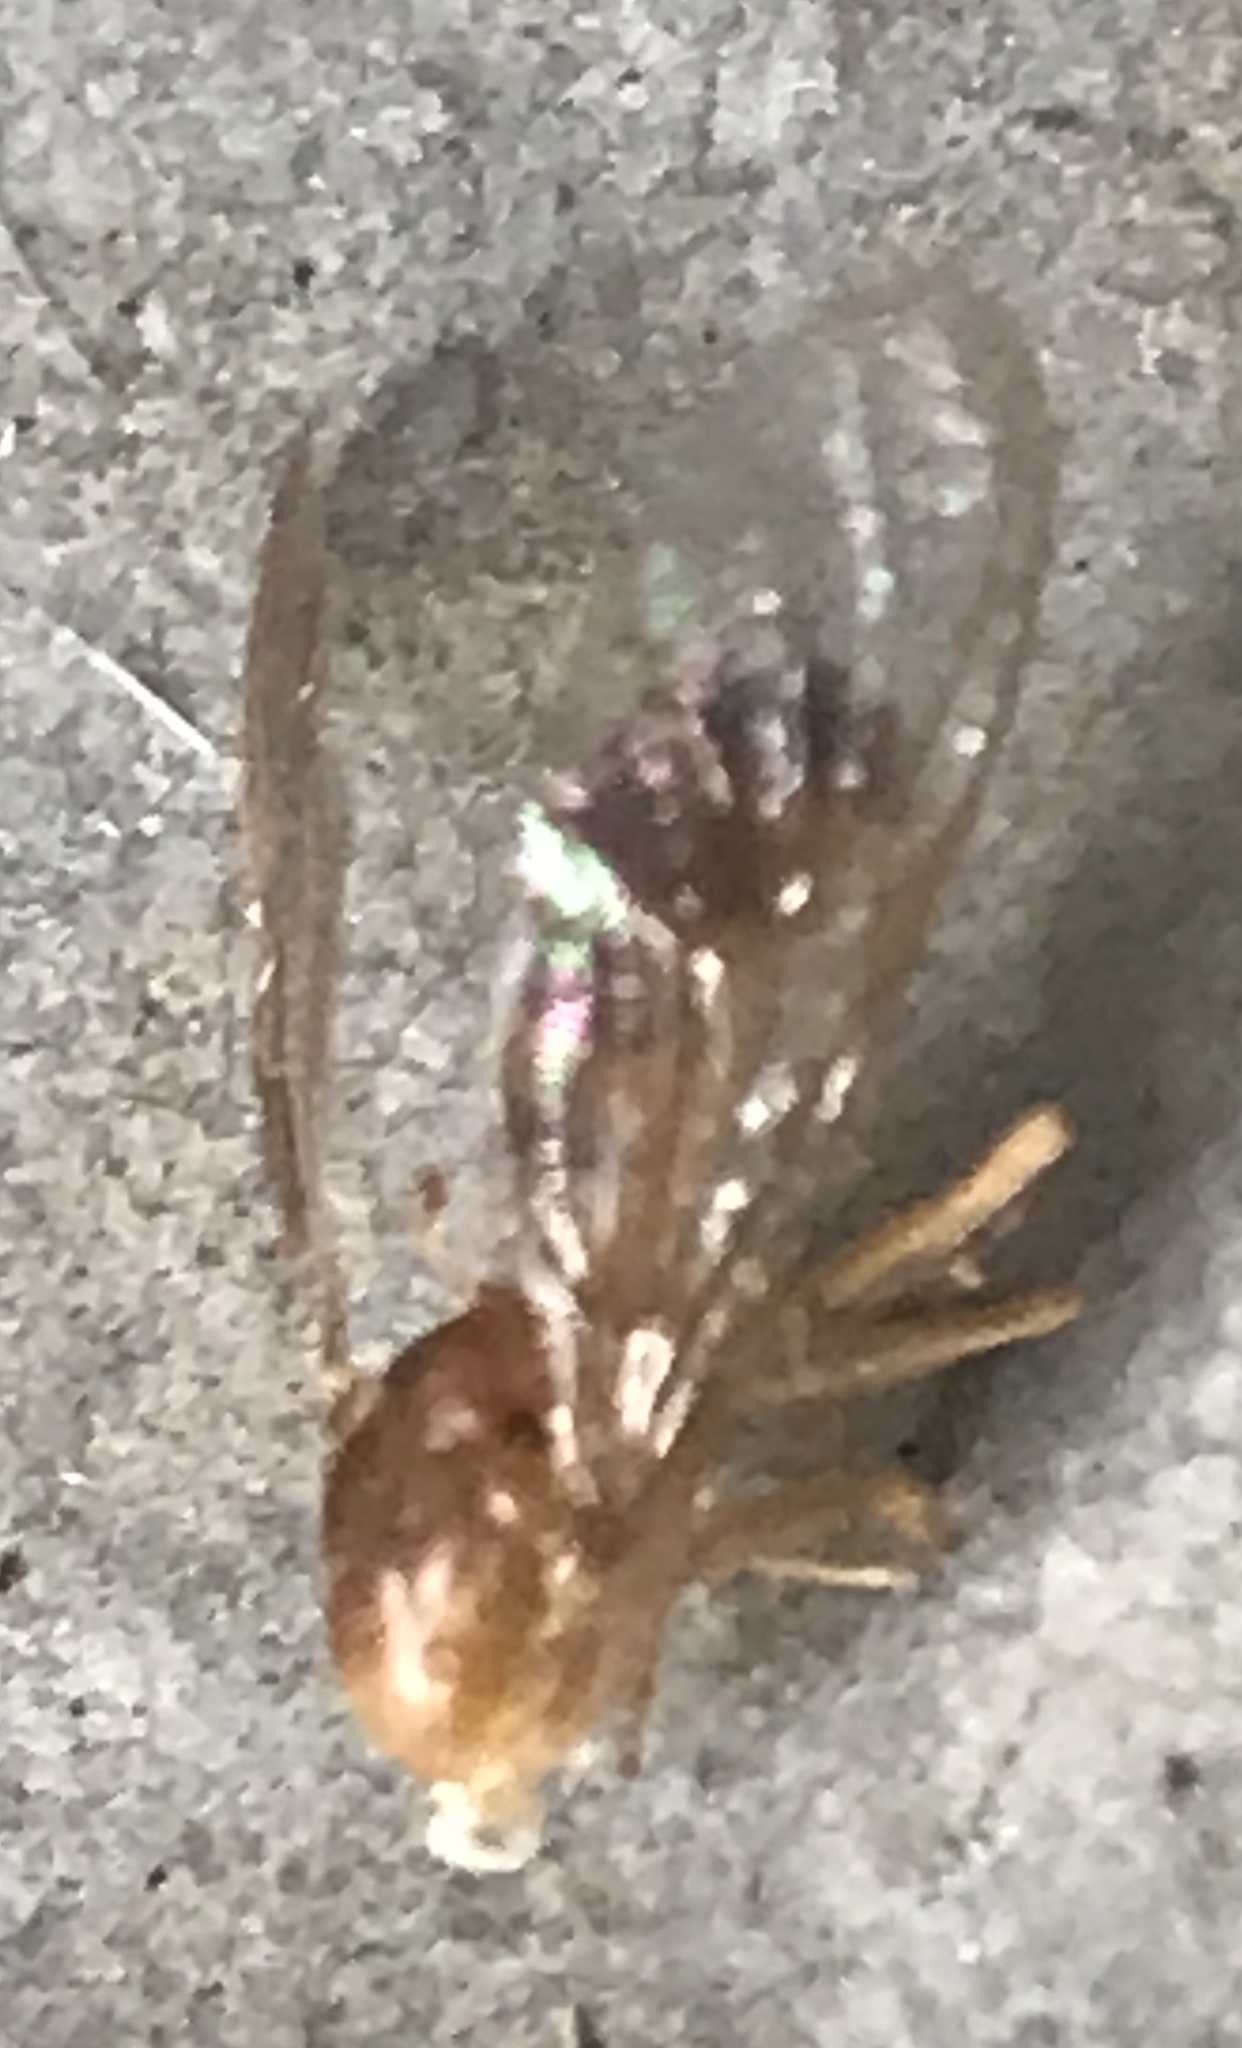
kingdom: Animalia
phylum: Arthropoda
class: Insecta
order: Diptera
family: Stratiomyidae
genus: Ptecticus
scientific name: Ptecticus trivittatus
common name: Compost fly
